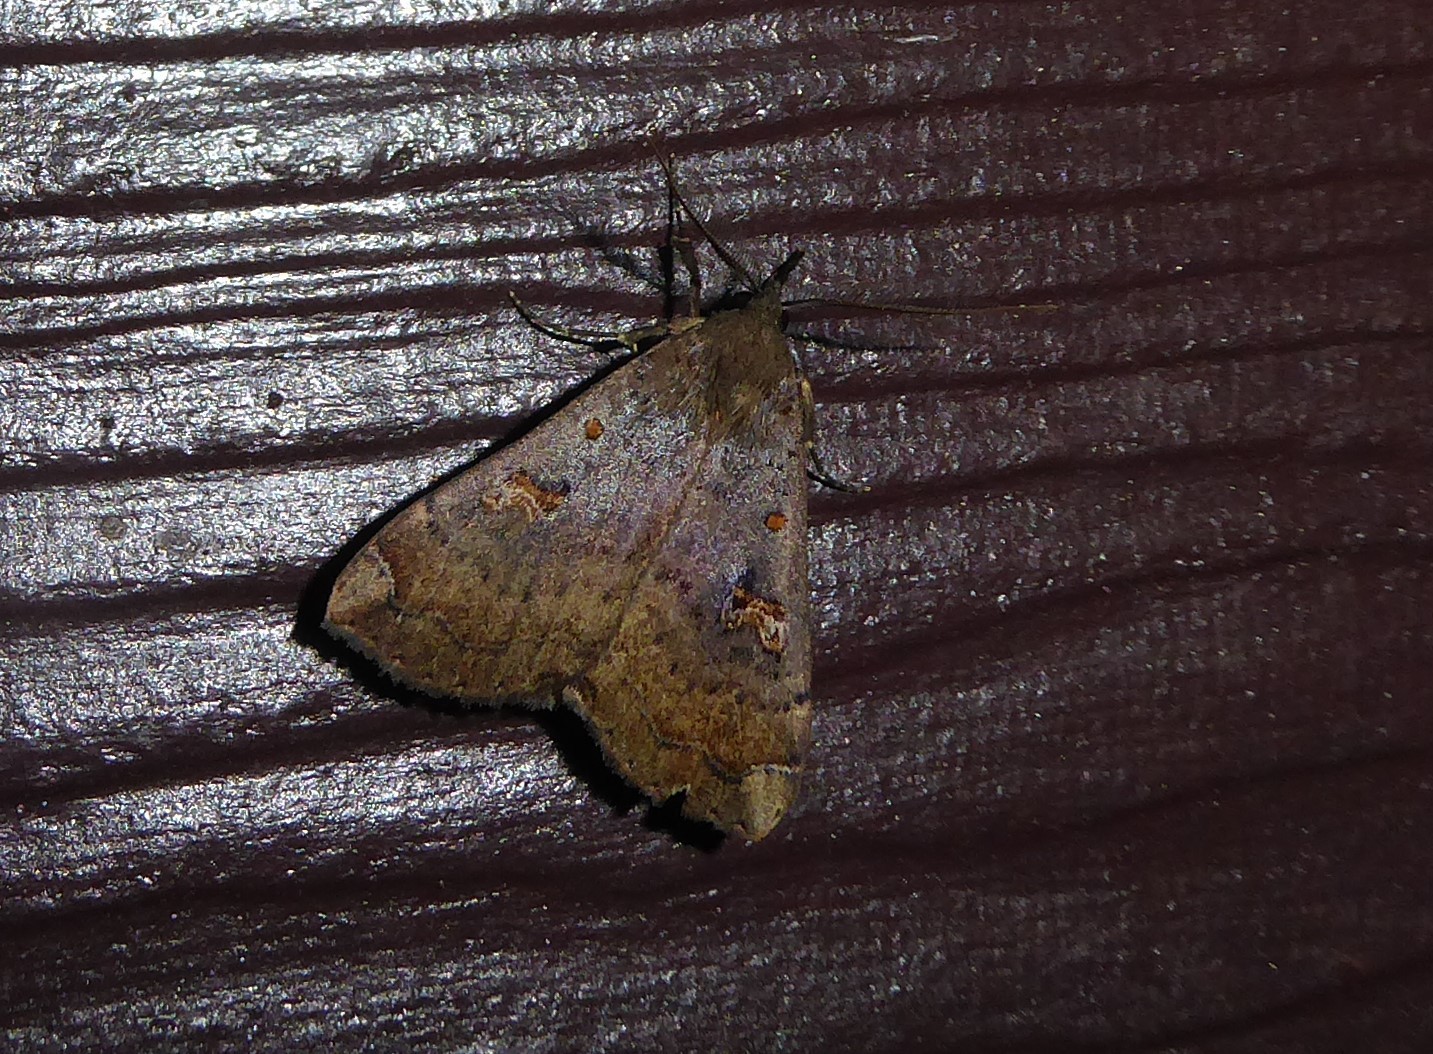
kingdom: Animalia
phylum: Arthropoda
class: Insecta
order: Lepidoptera
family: Erebidae
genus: Rhapsa
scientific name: Rhapsa scotosialis
